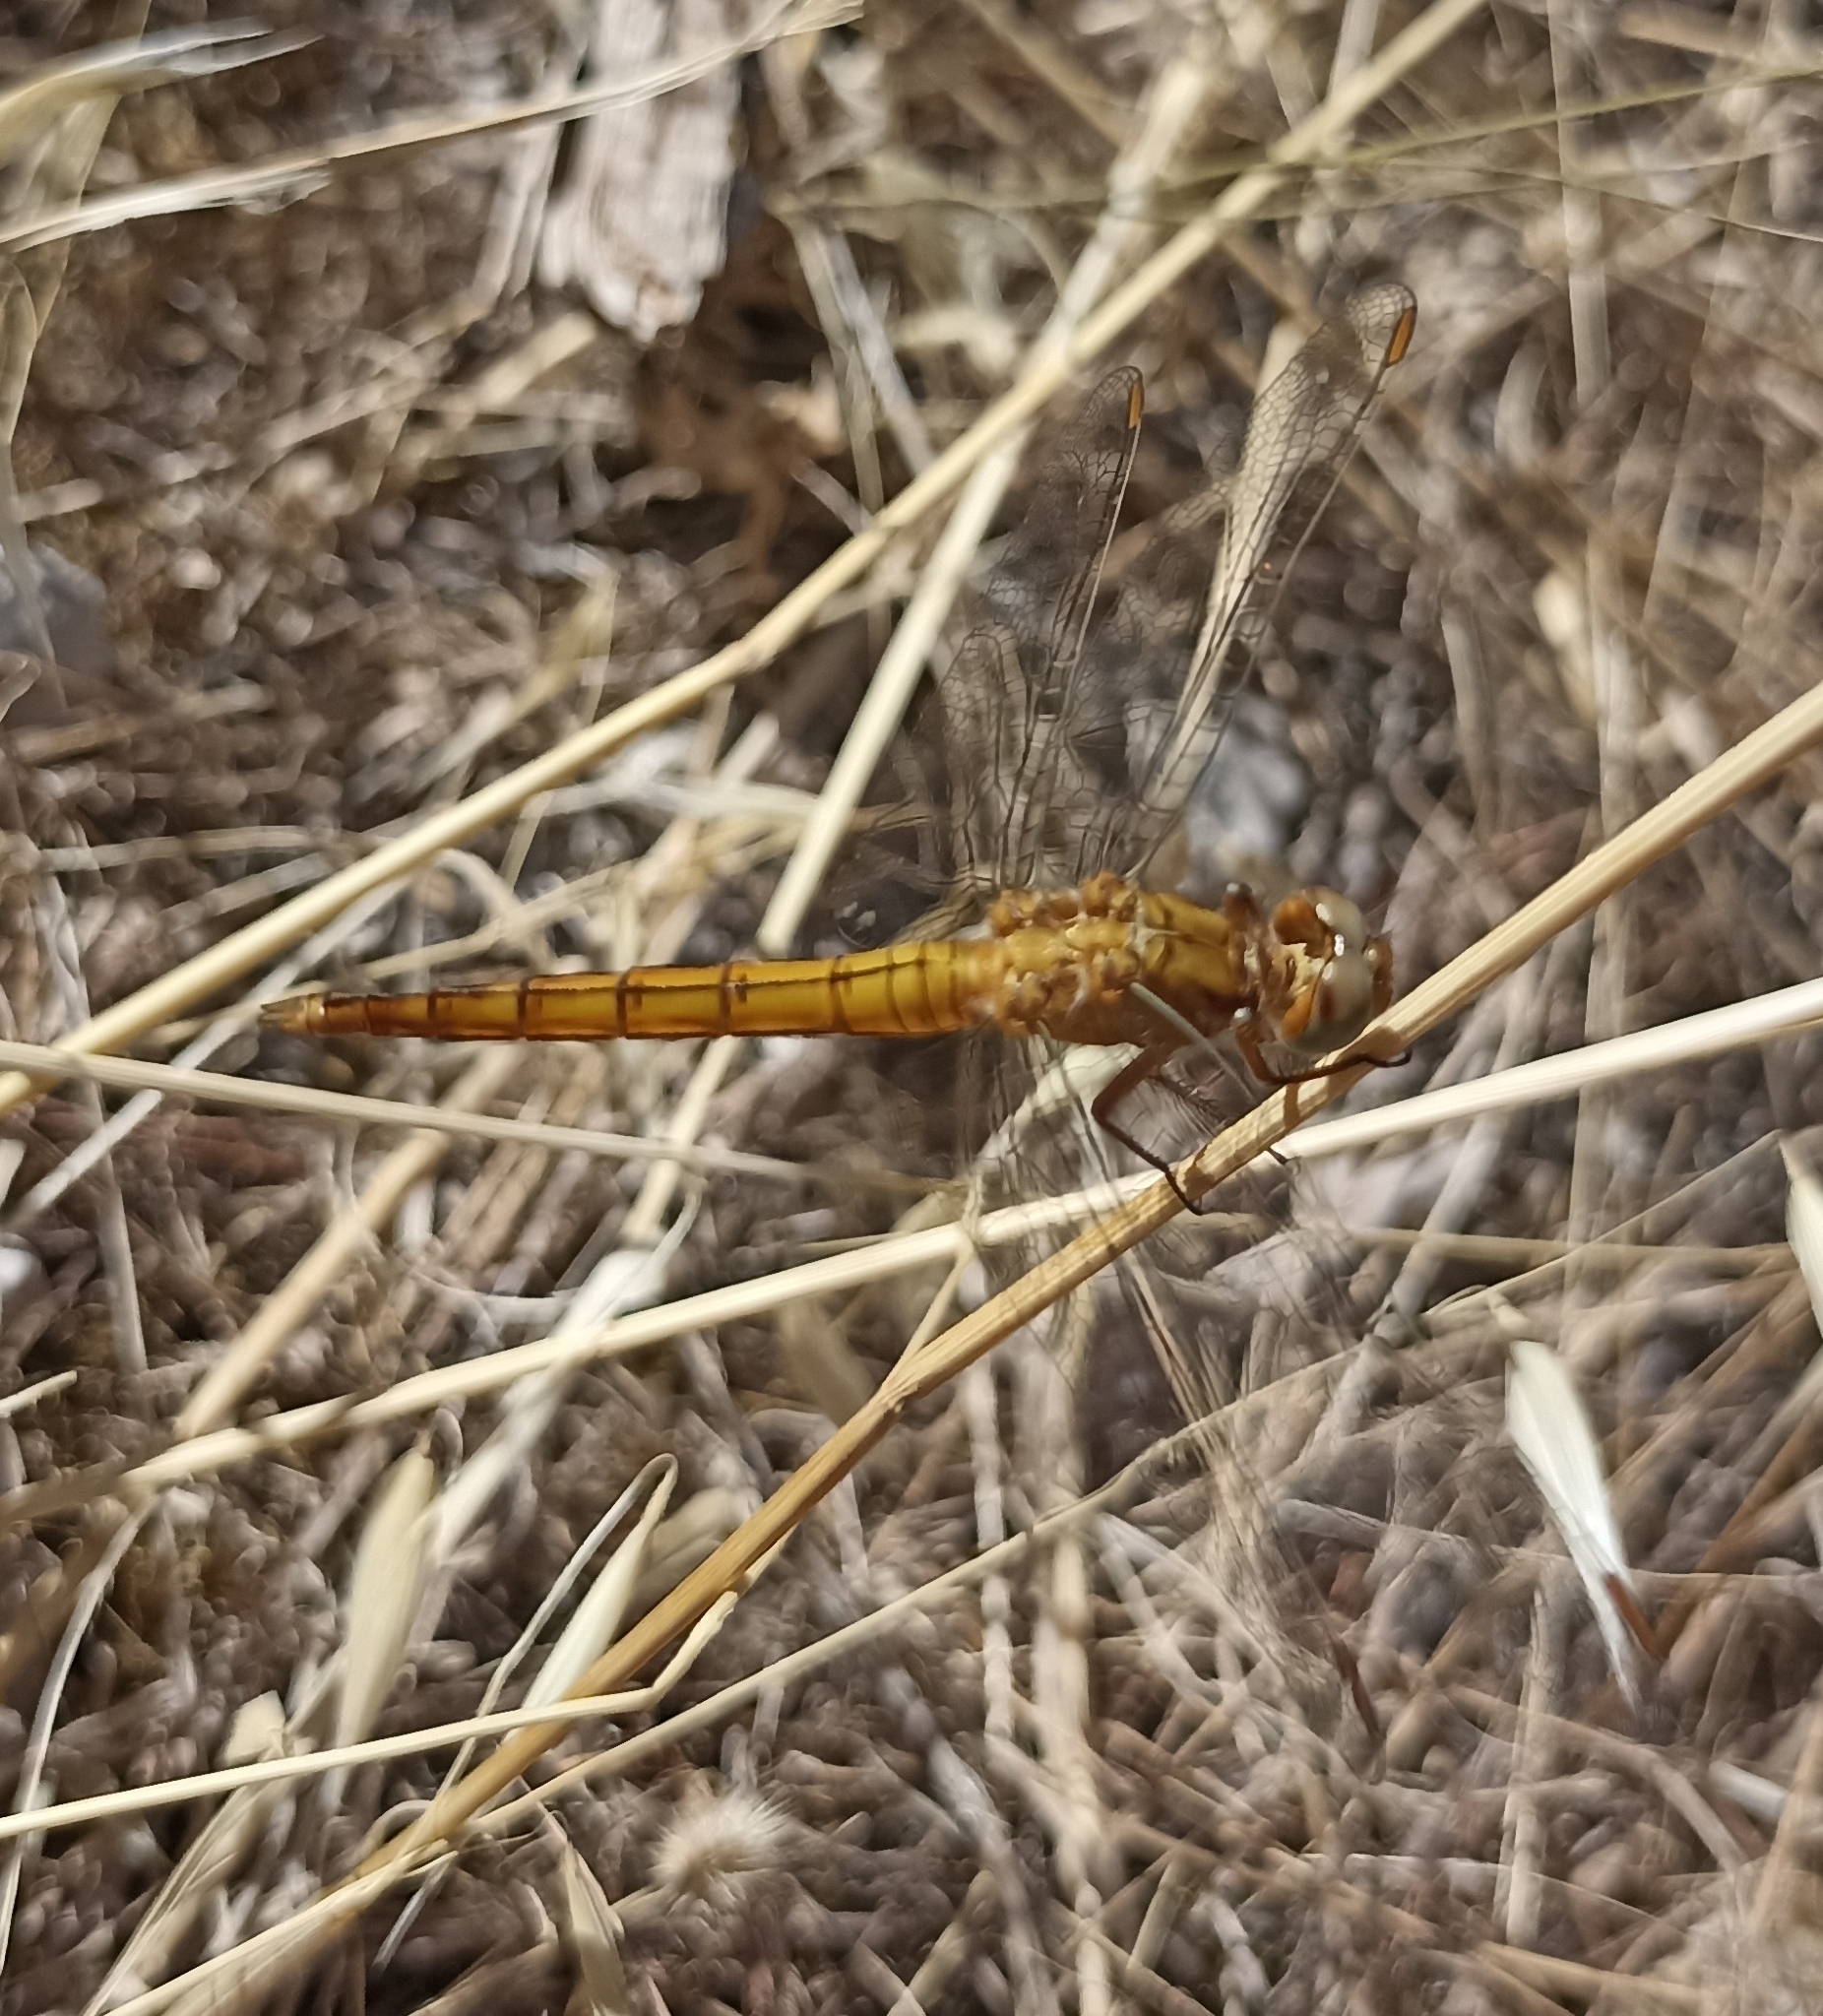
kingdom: Animalia
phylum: Arthropoda
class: Insecta
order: Odonata
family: Libellulidae
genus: Orthetrum
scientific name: Orthetrum coerulescens
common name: Keeled skimmer
